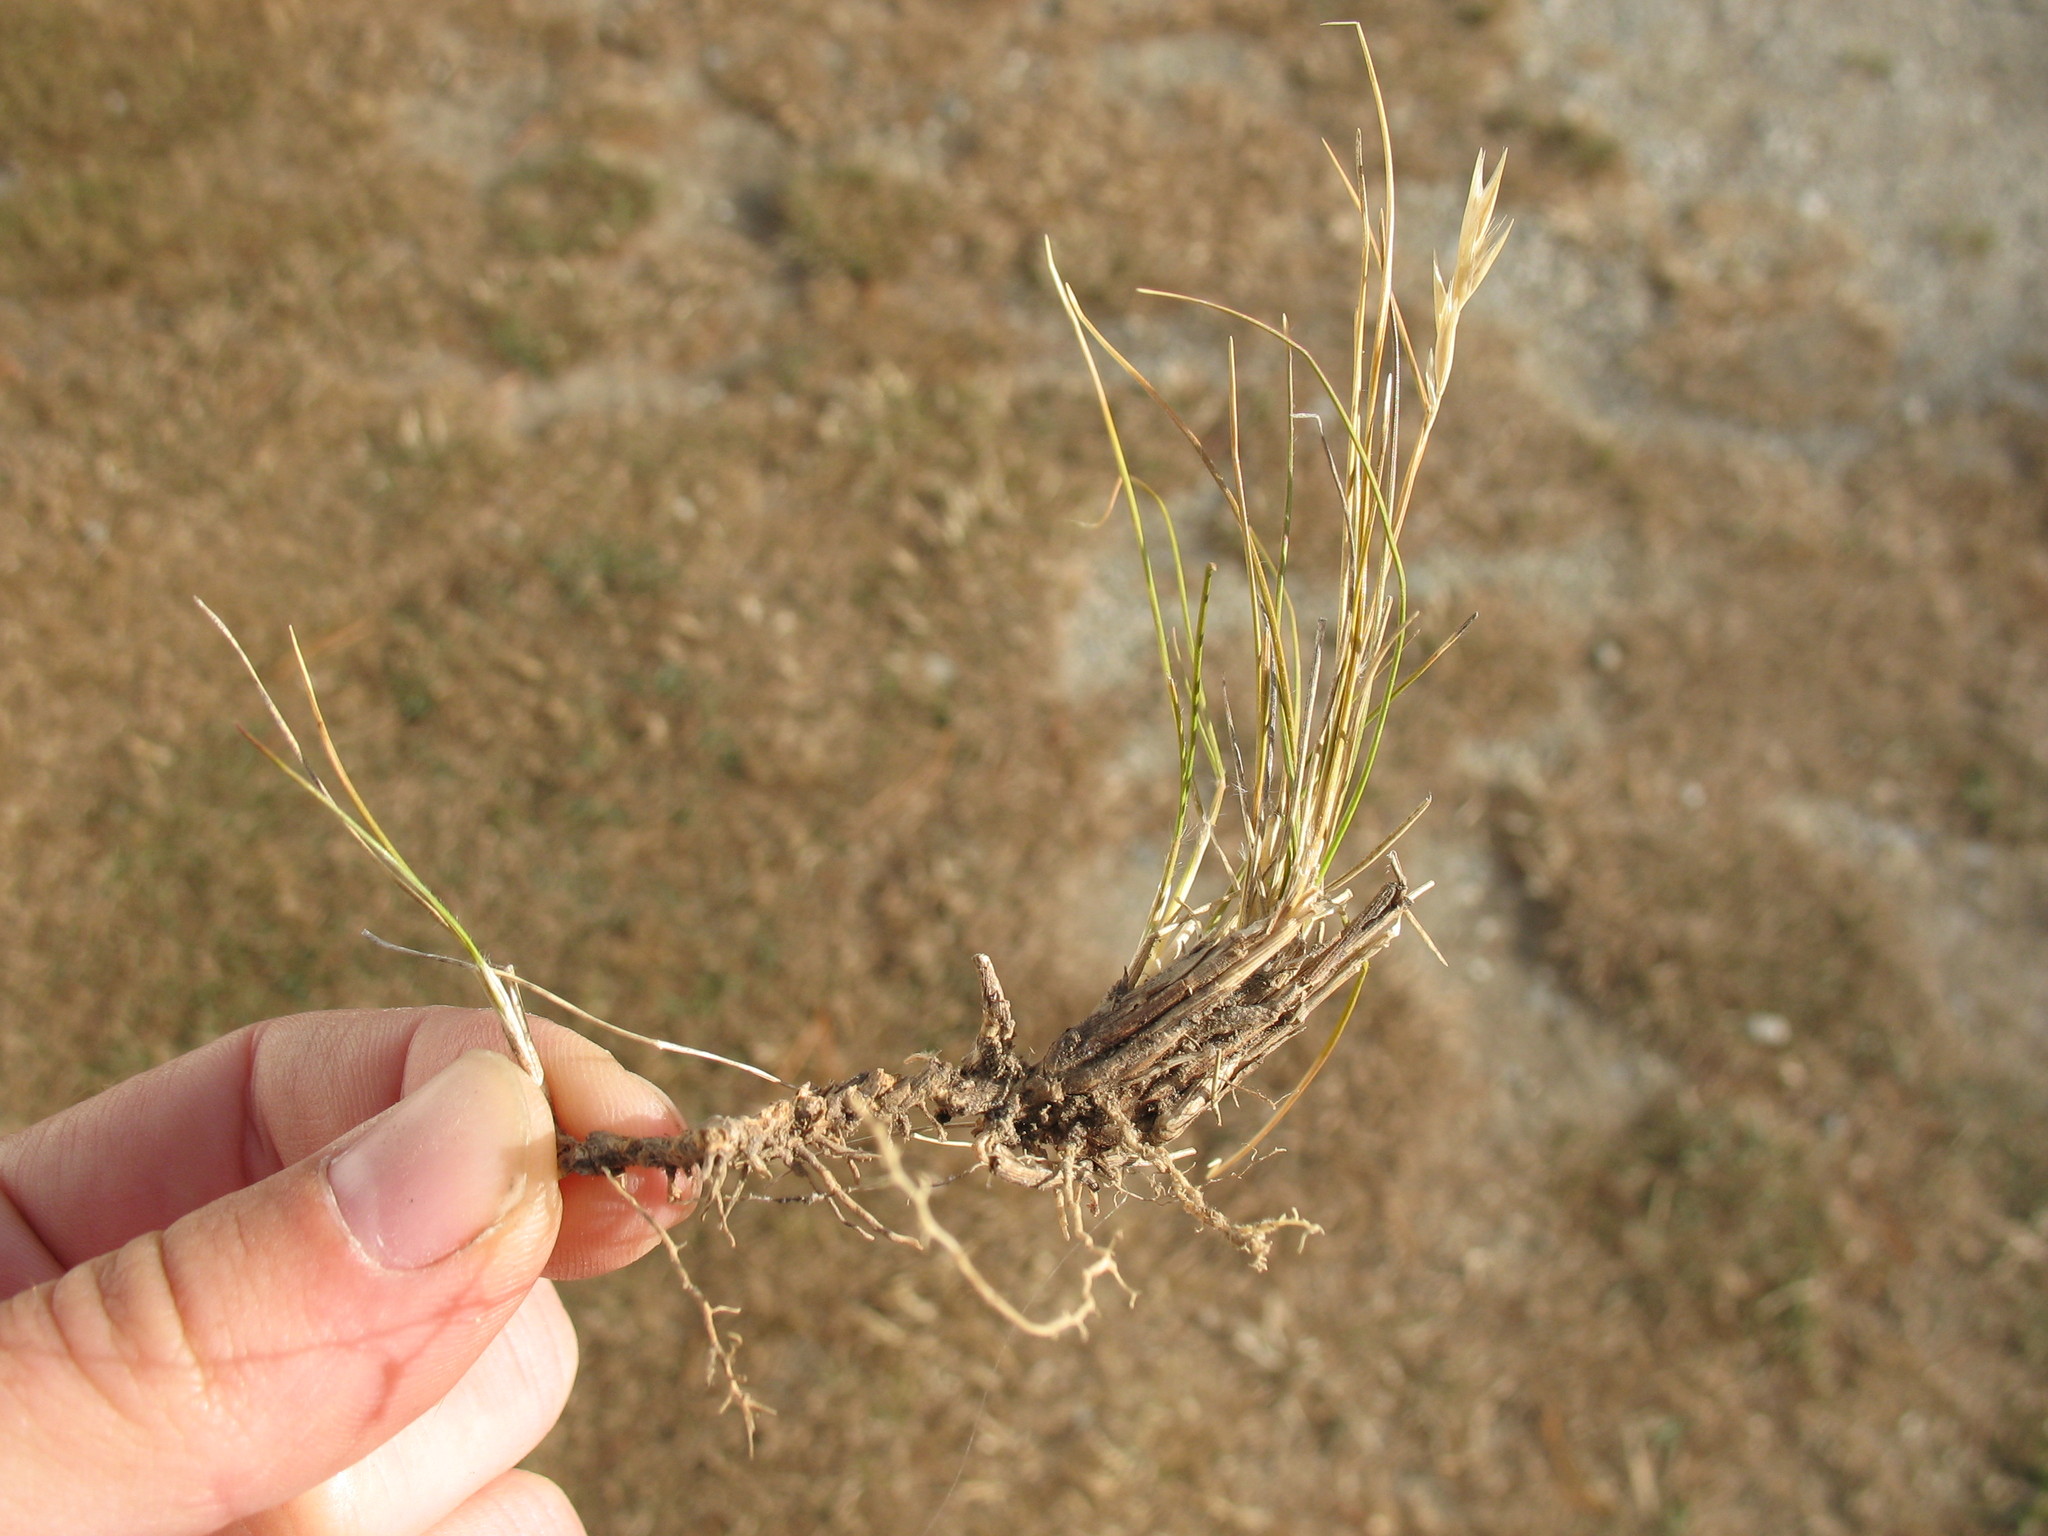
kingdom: Plantae
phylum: Tracheophyta
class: Liliopsida
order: Poales
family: Poaceae
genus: Rytidosperma
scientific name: Rytidosperma thomsonii
